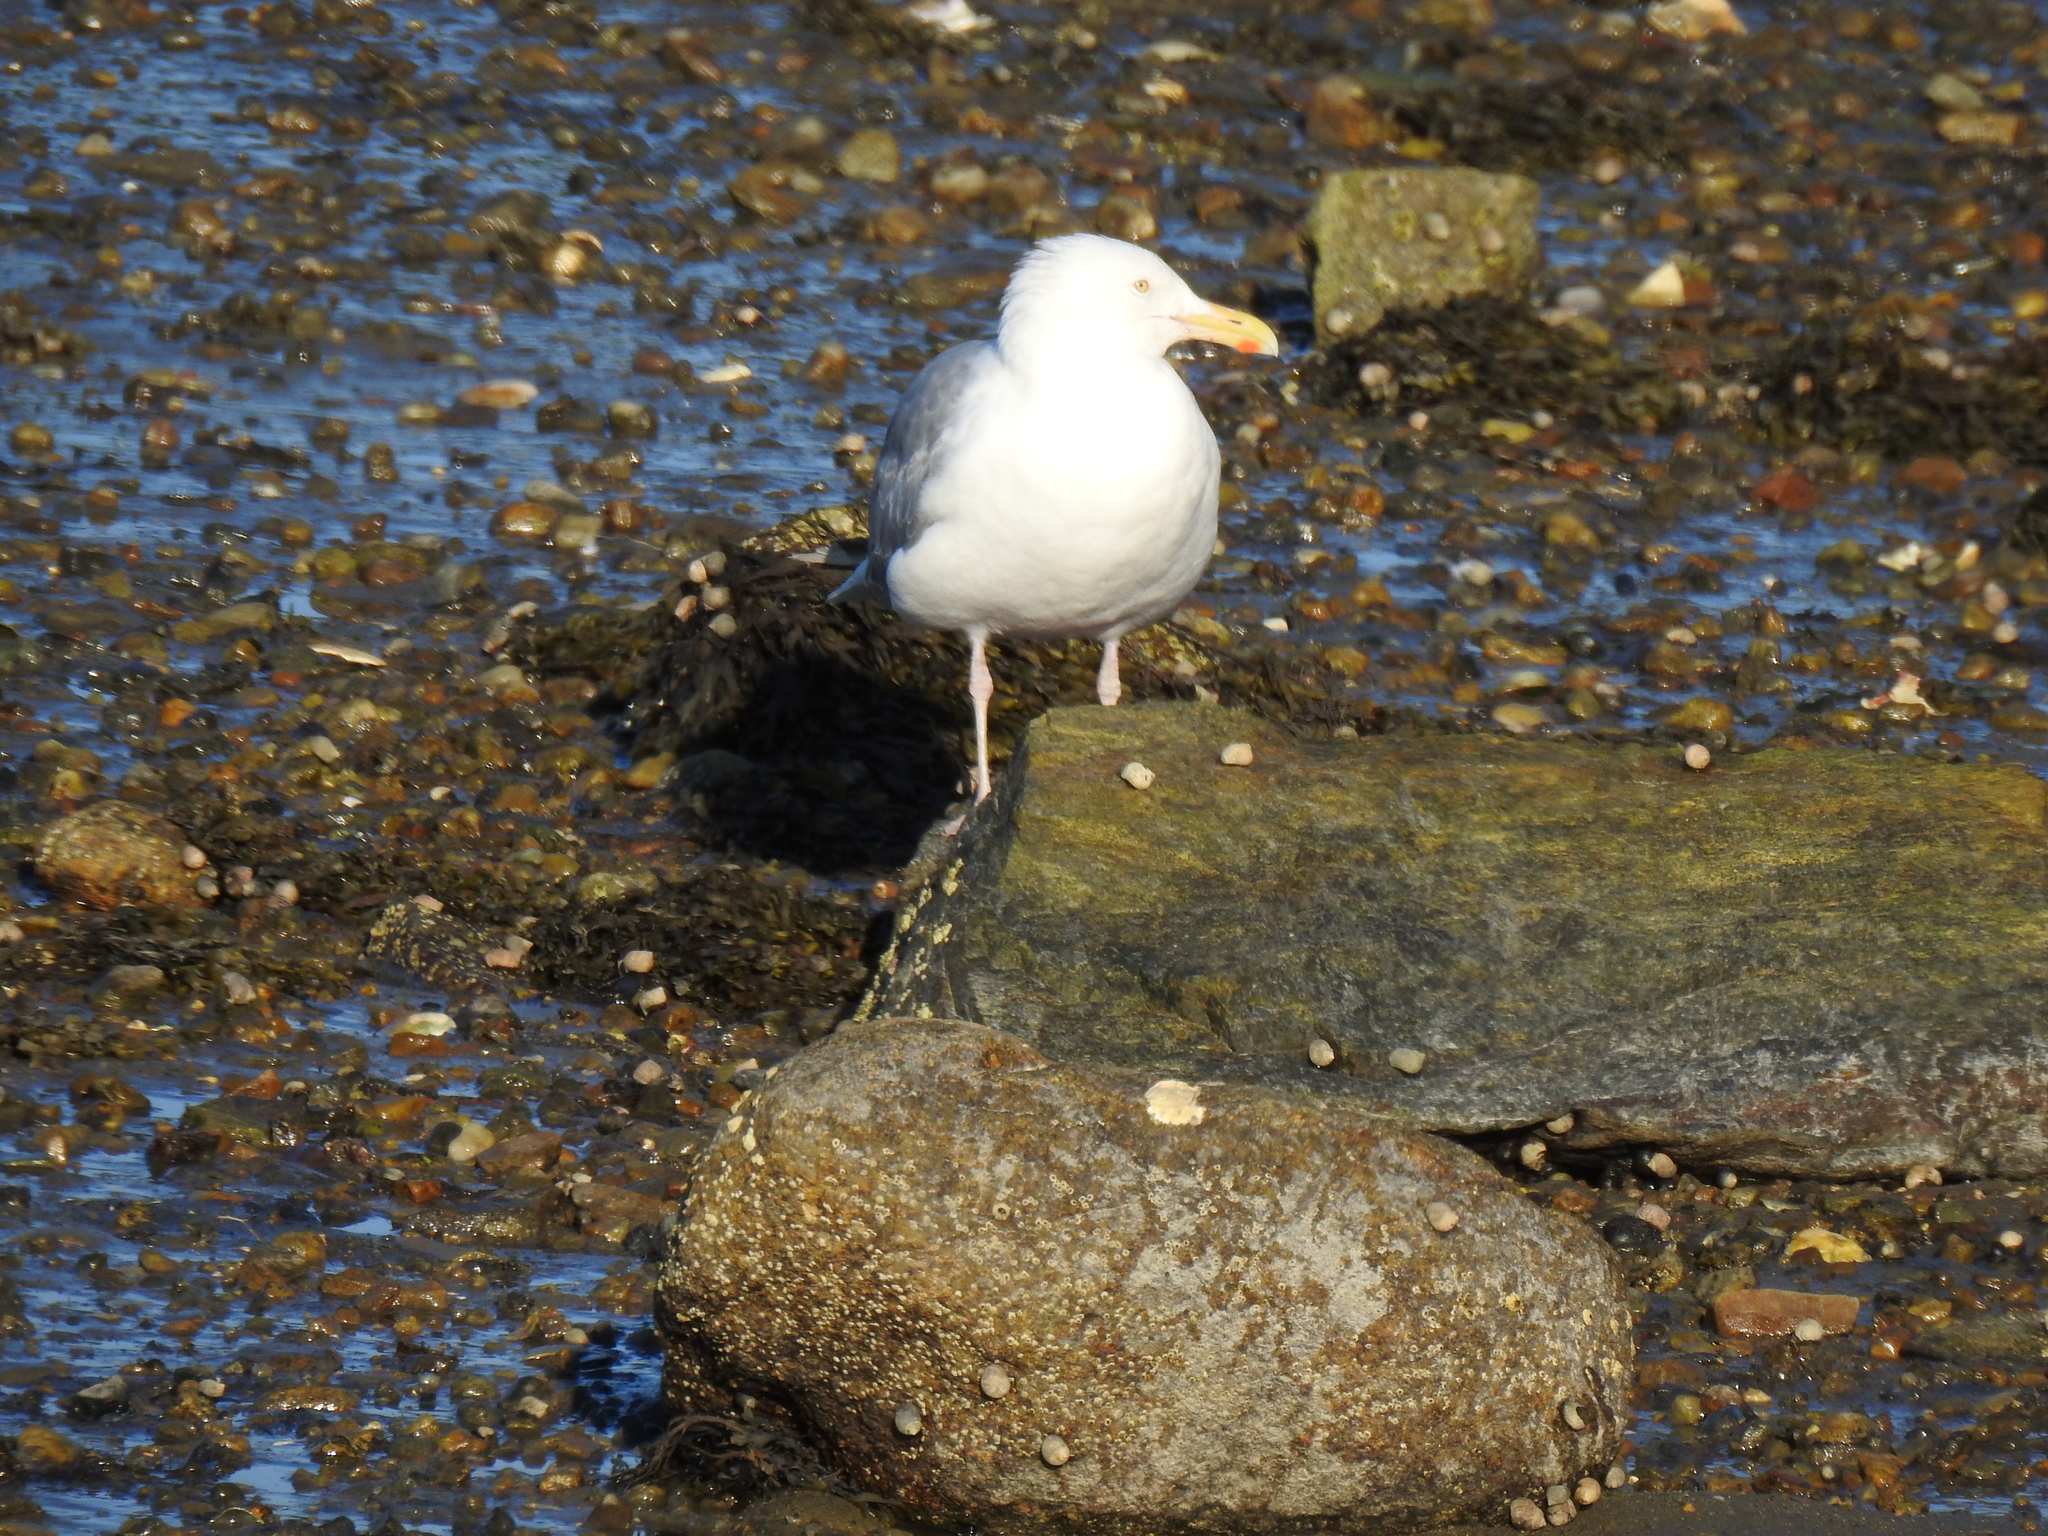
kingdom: Animalia
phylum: Chordata
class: Aves
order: Charadriiformes
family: Laridae
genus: Larus
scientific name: Larus argentatus
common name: Herring gull
